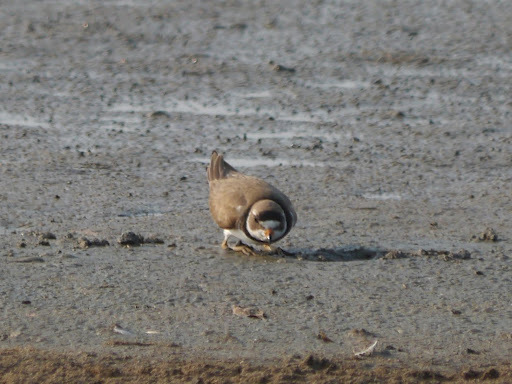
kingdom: Animalia
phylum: Chordata
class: Aves
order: Charadriiformes
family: Charadriidae
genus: Charadrius
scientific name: Charadrius semipalmatus
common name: Semipalmated plover
